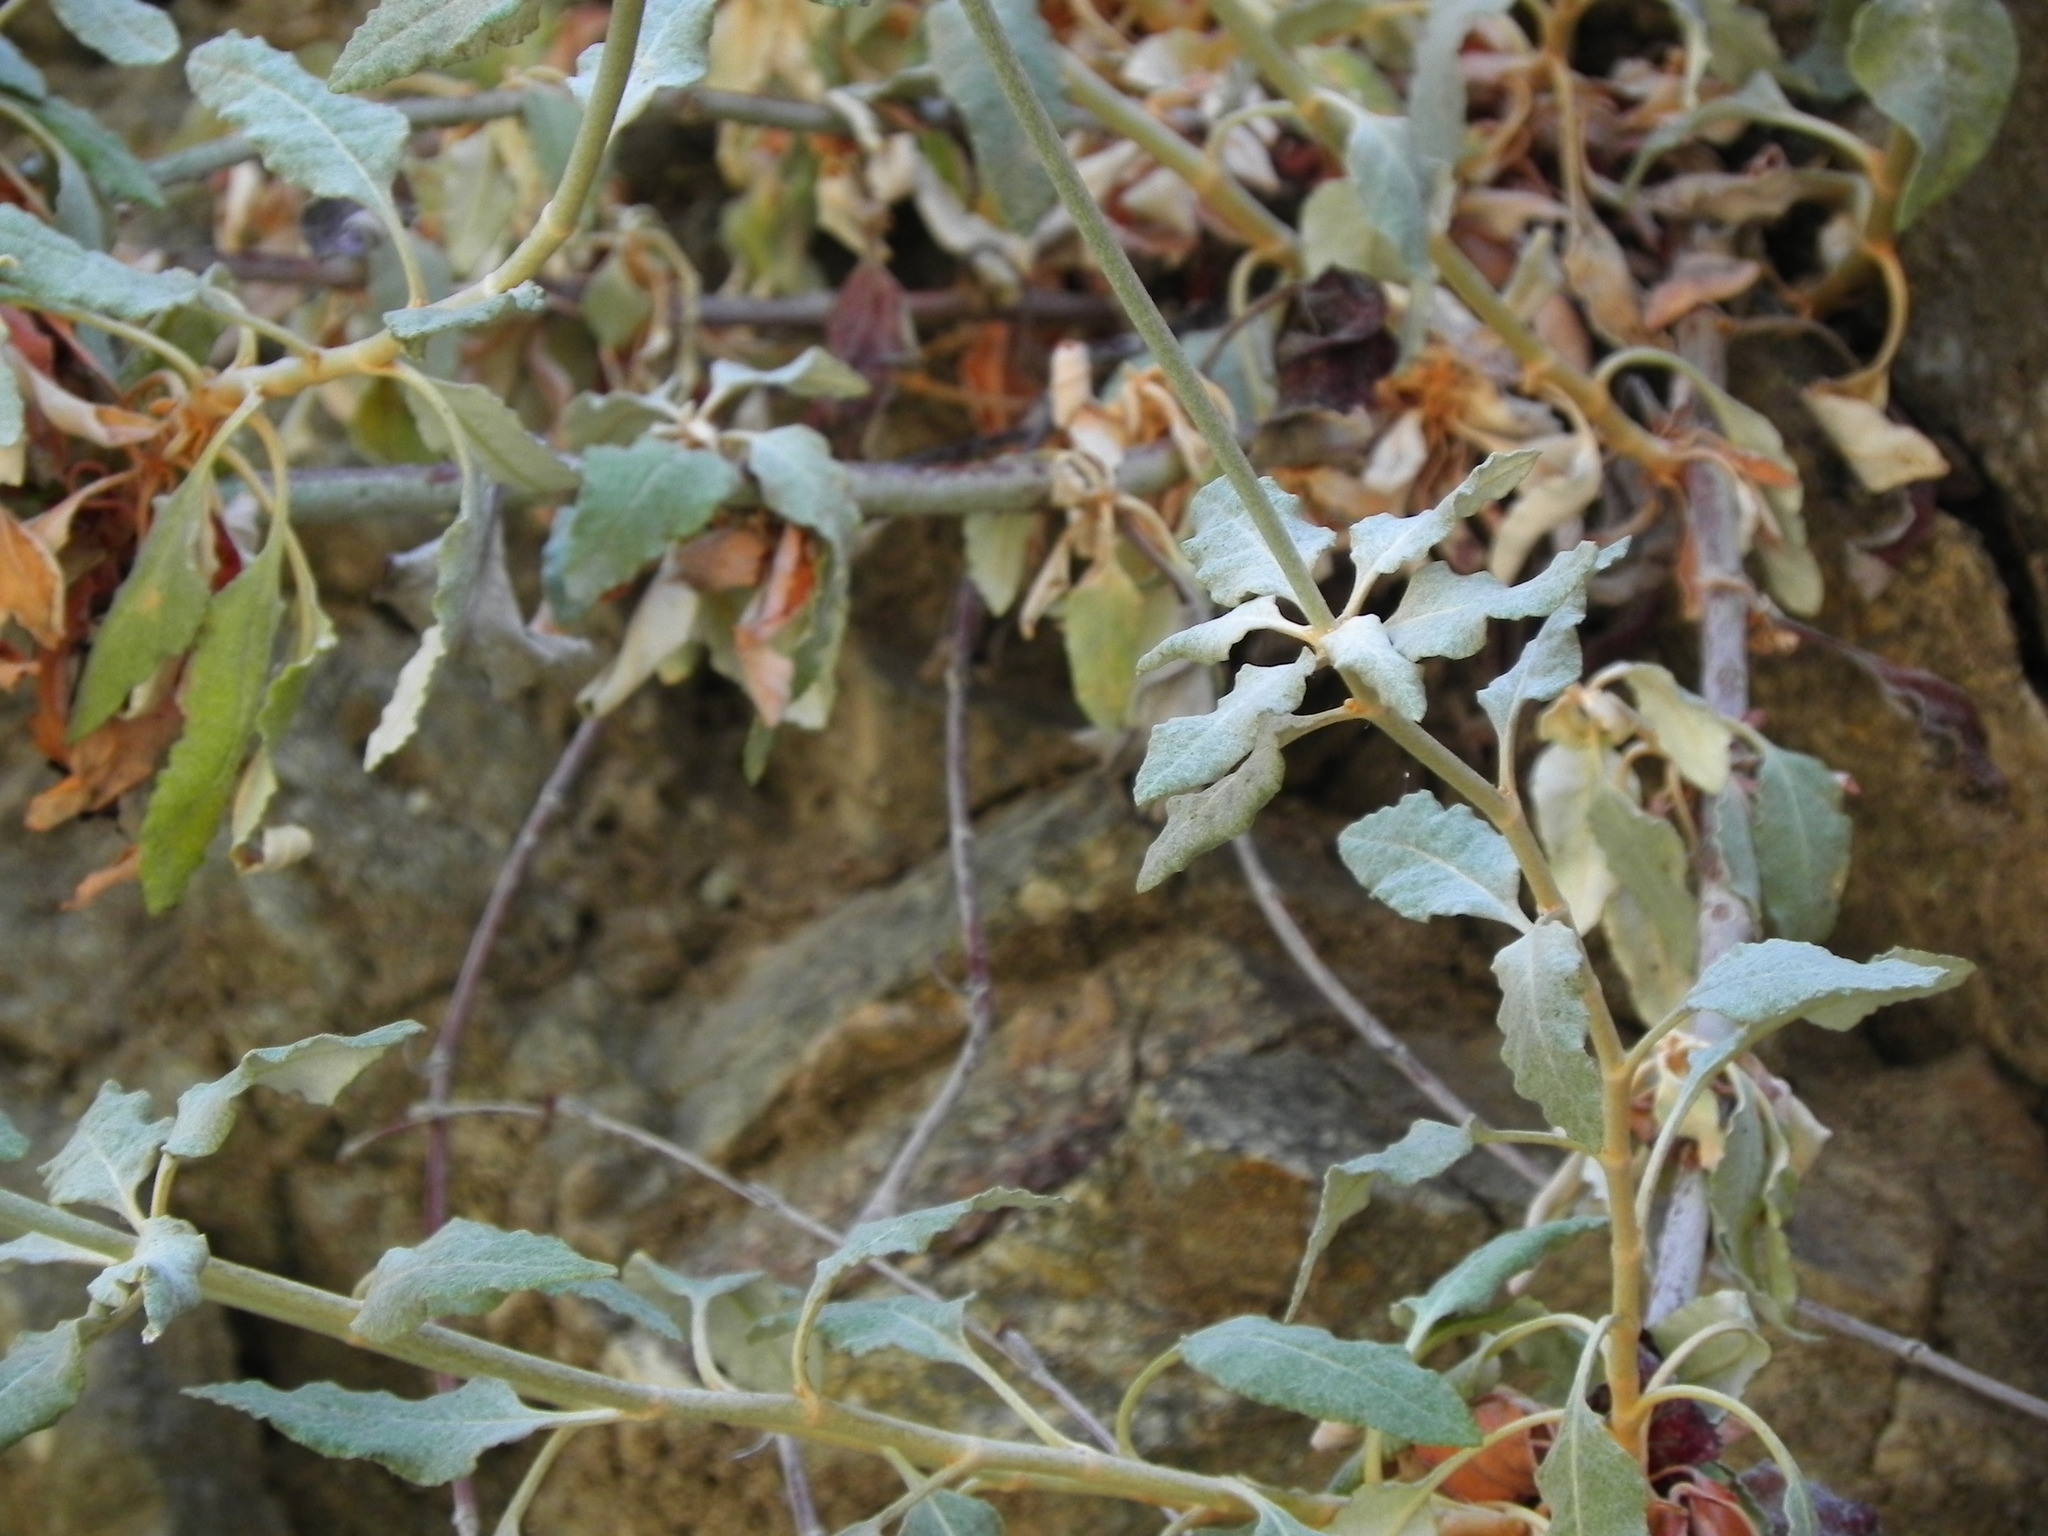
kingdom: Plantae
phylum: Tracheophyta
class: Magnoliopsida
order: Caryophyllales
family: Polygonaceae
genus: Eriogonum
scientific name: Eriogonum elongatum
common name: Long-stem wild buckwheat
